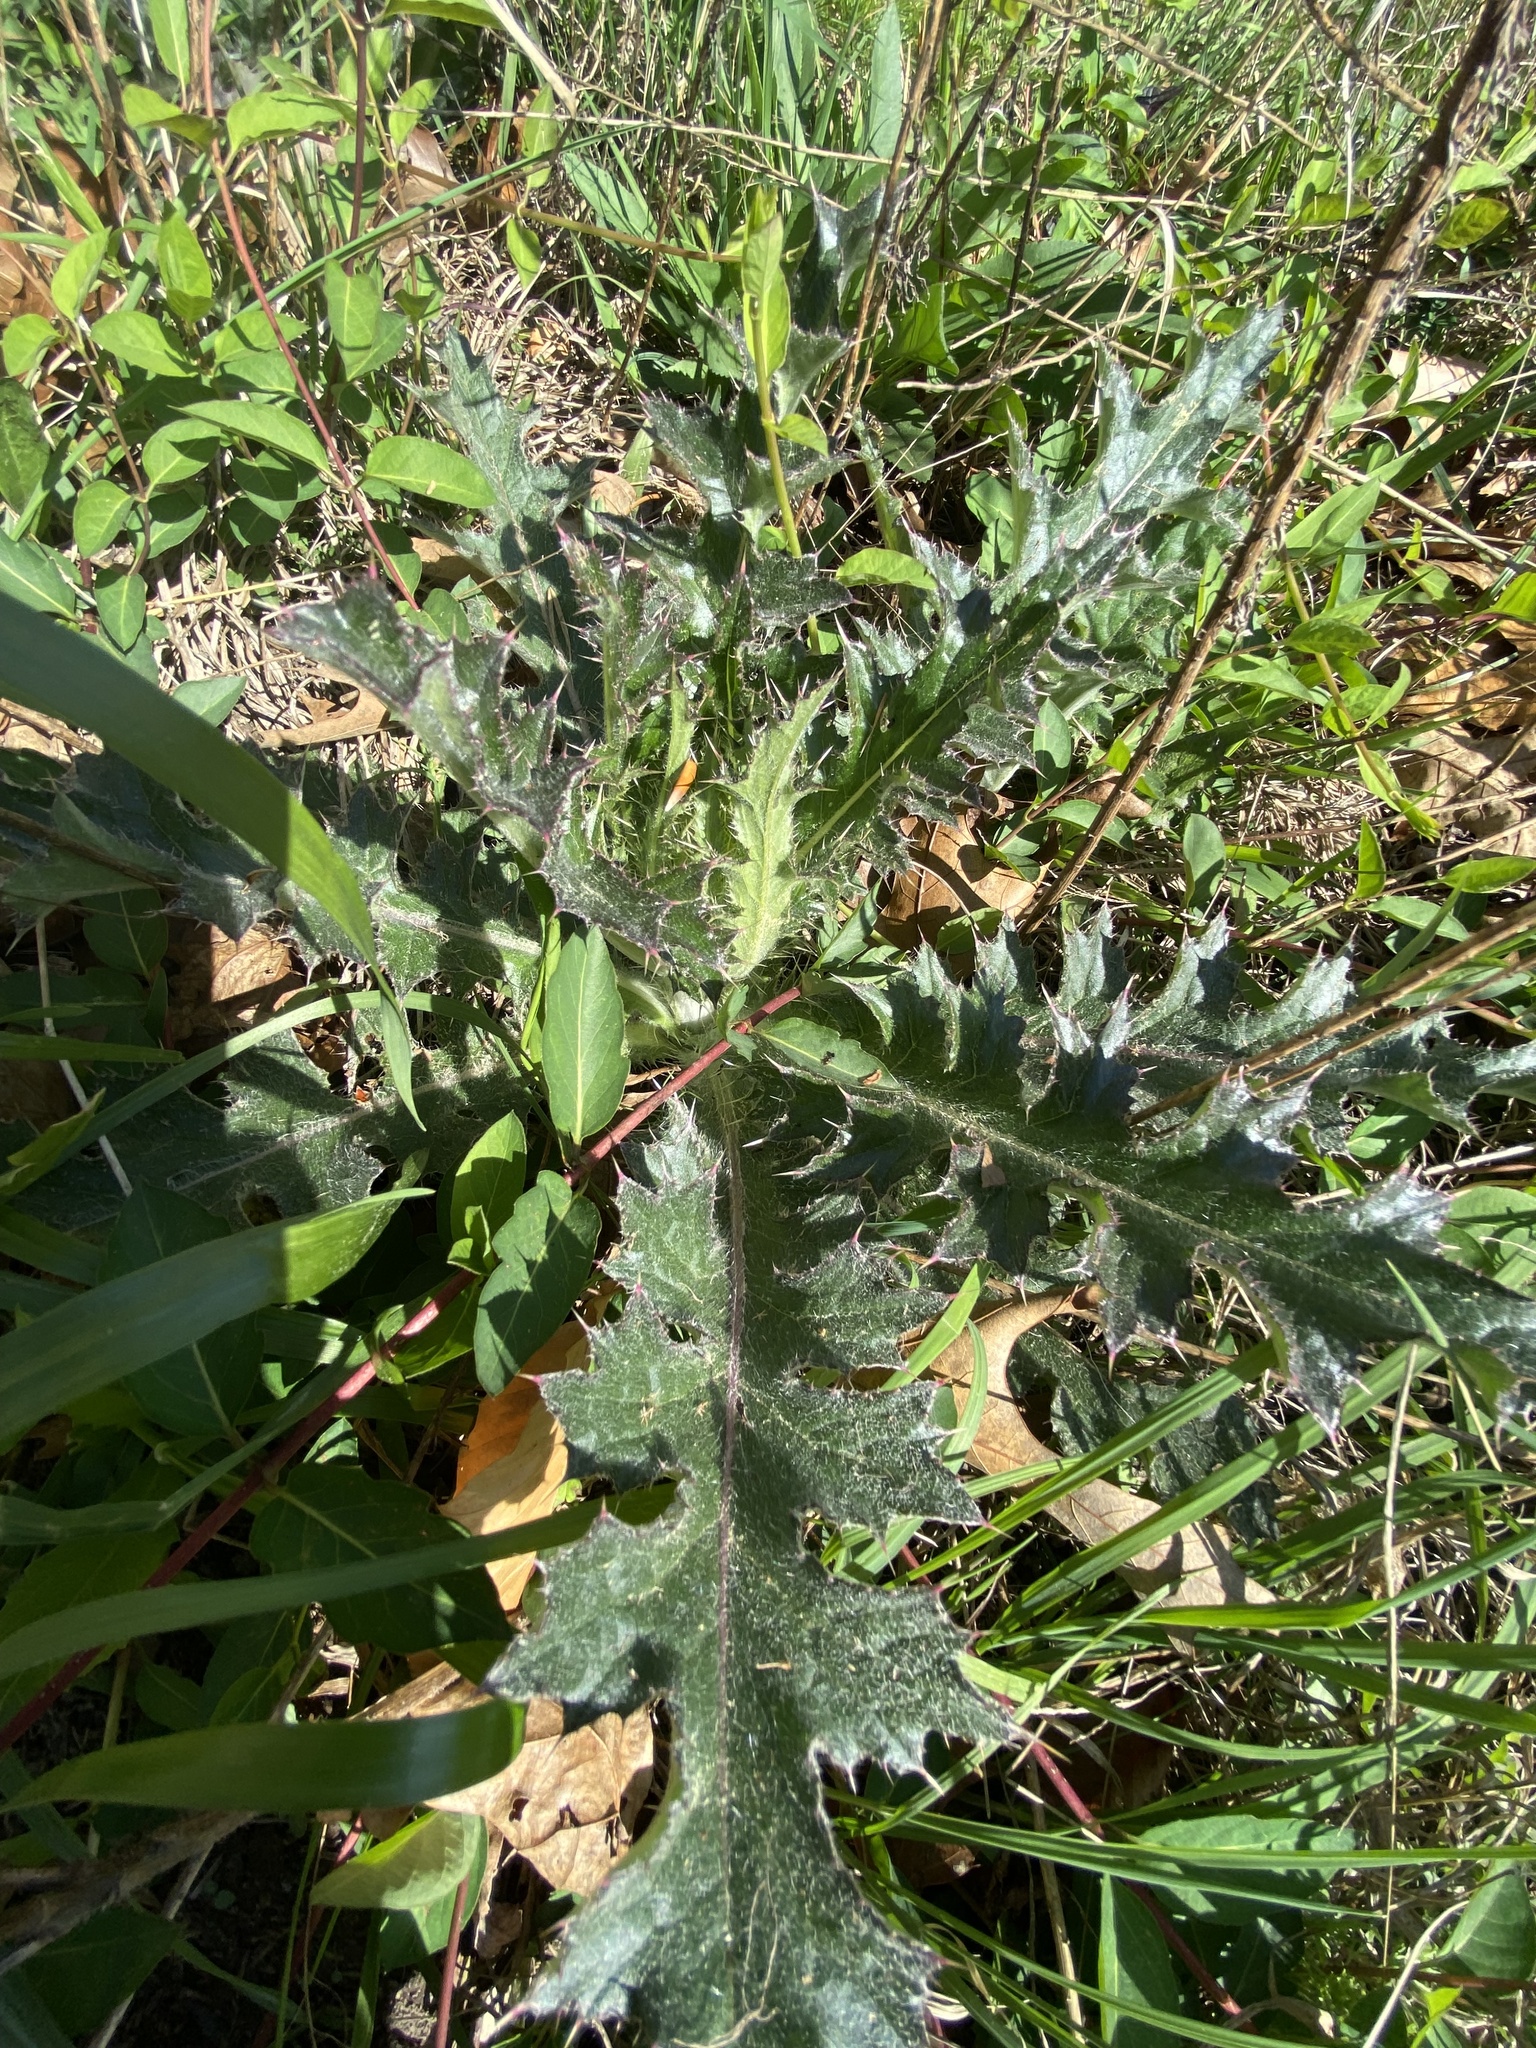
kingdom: Plantae
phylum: Tracheophyta
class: Magnoliopsida
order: Asterales
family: Asteraceae
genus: Cirsium
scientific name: Cirsium horridulum
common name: Bristly thistle
